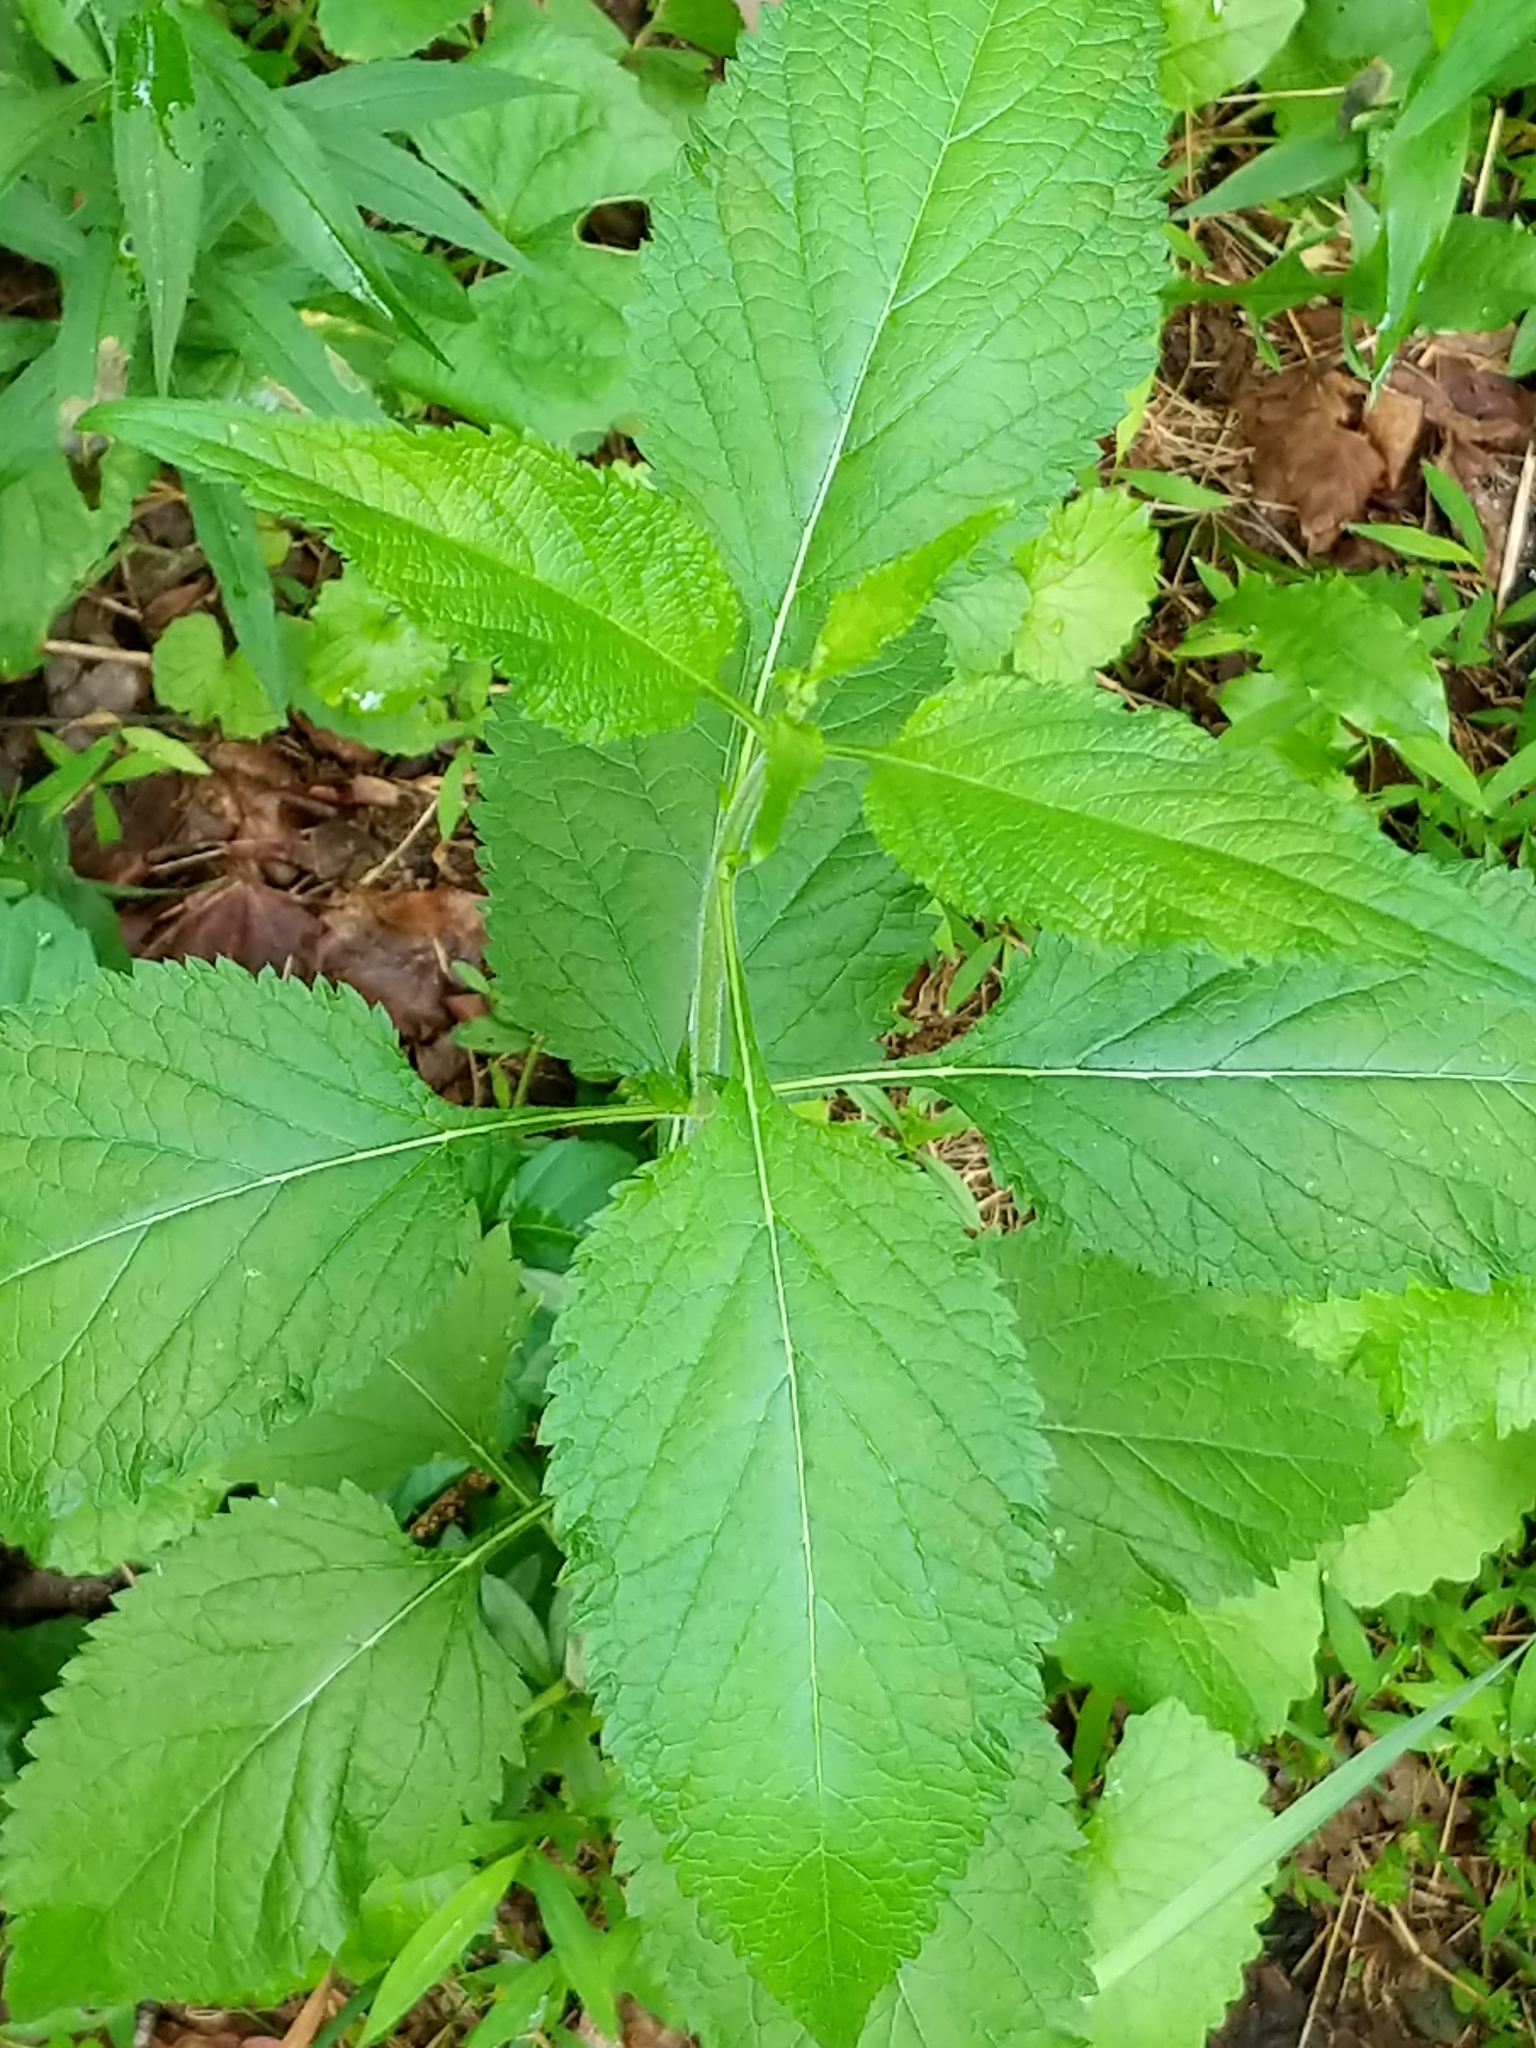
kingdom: Plantae
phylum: Tracheophyta
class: Magnoliopsida
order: Lamiales
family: Verbenaceae
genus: Verbena
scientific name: Verbena urticifolia
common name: Nettle-leaved vervain
